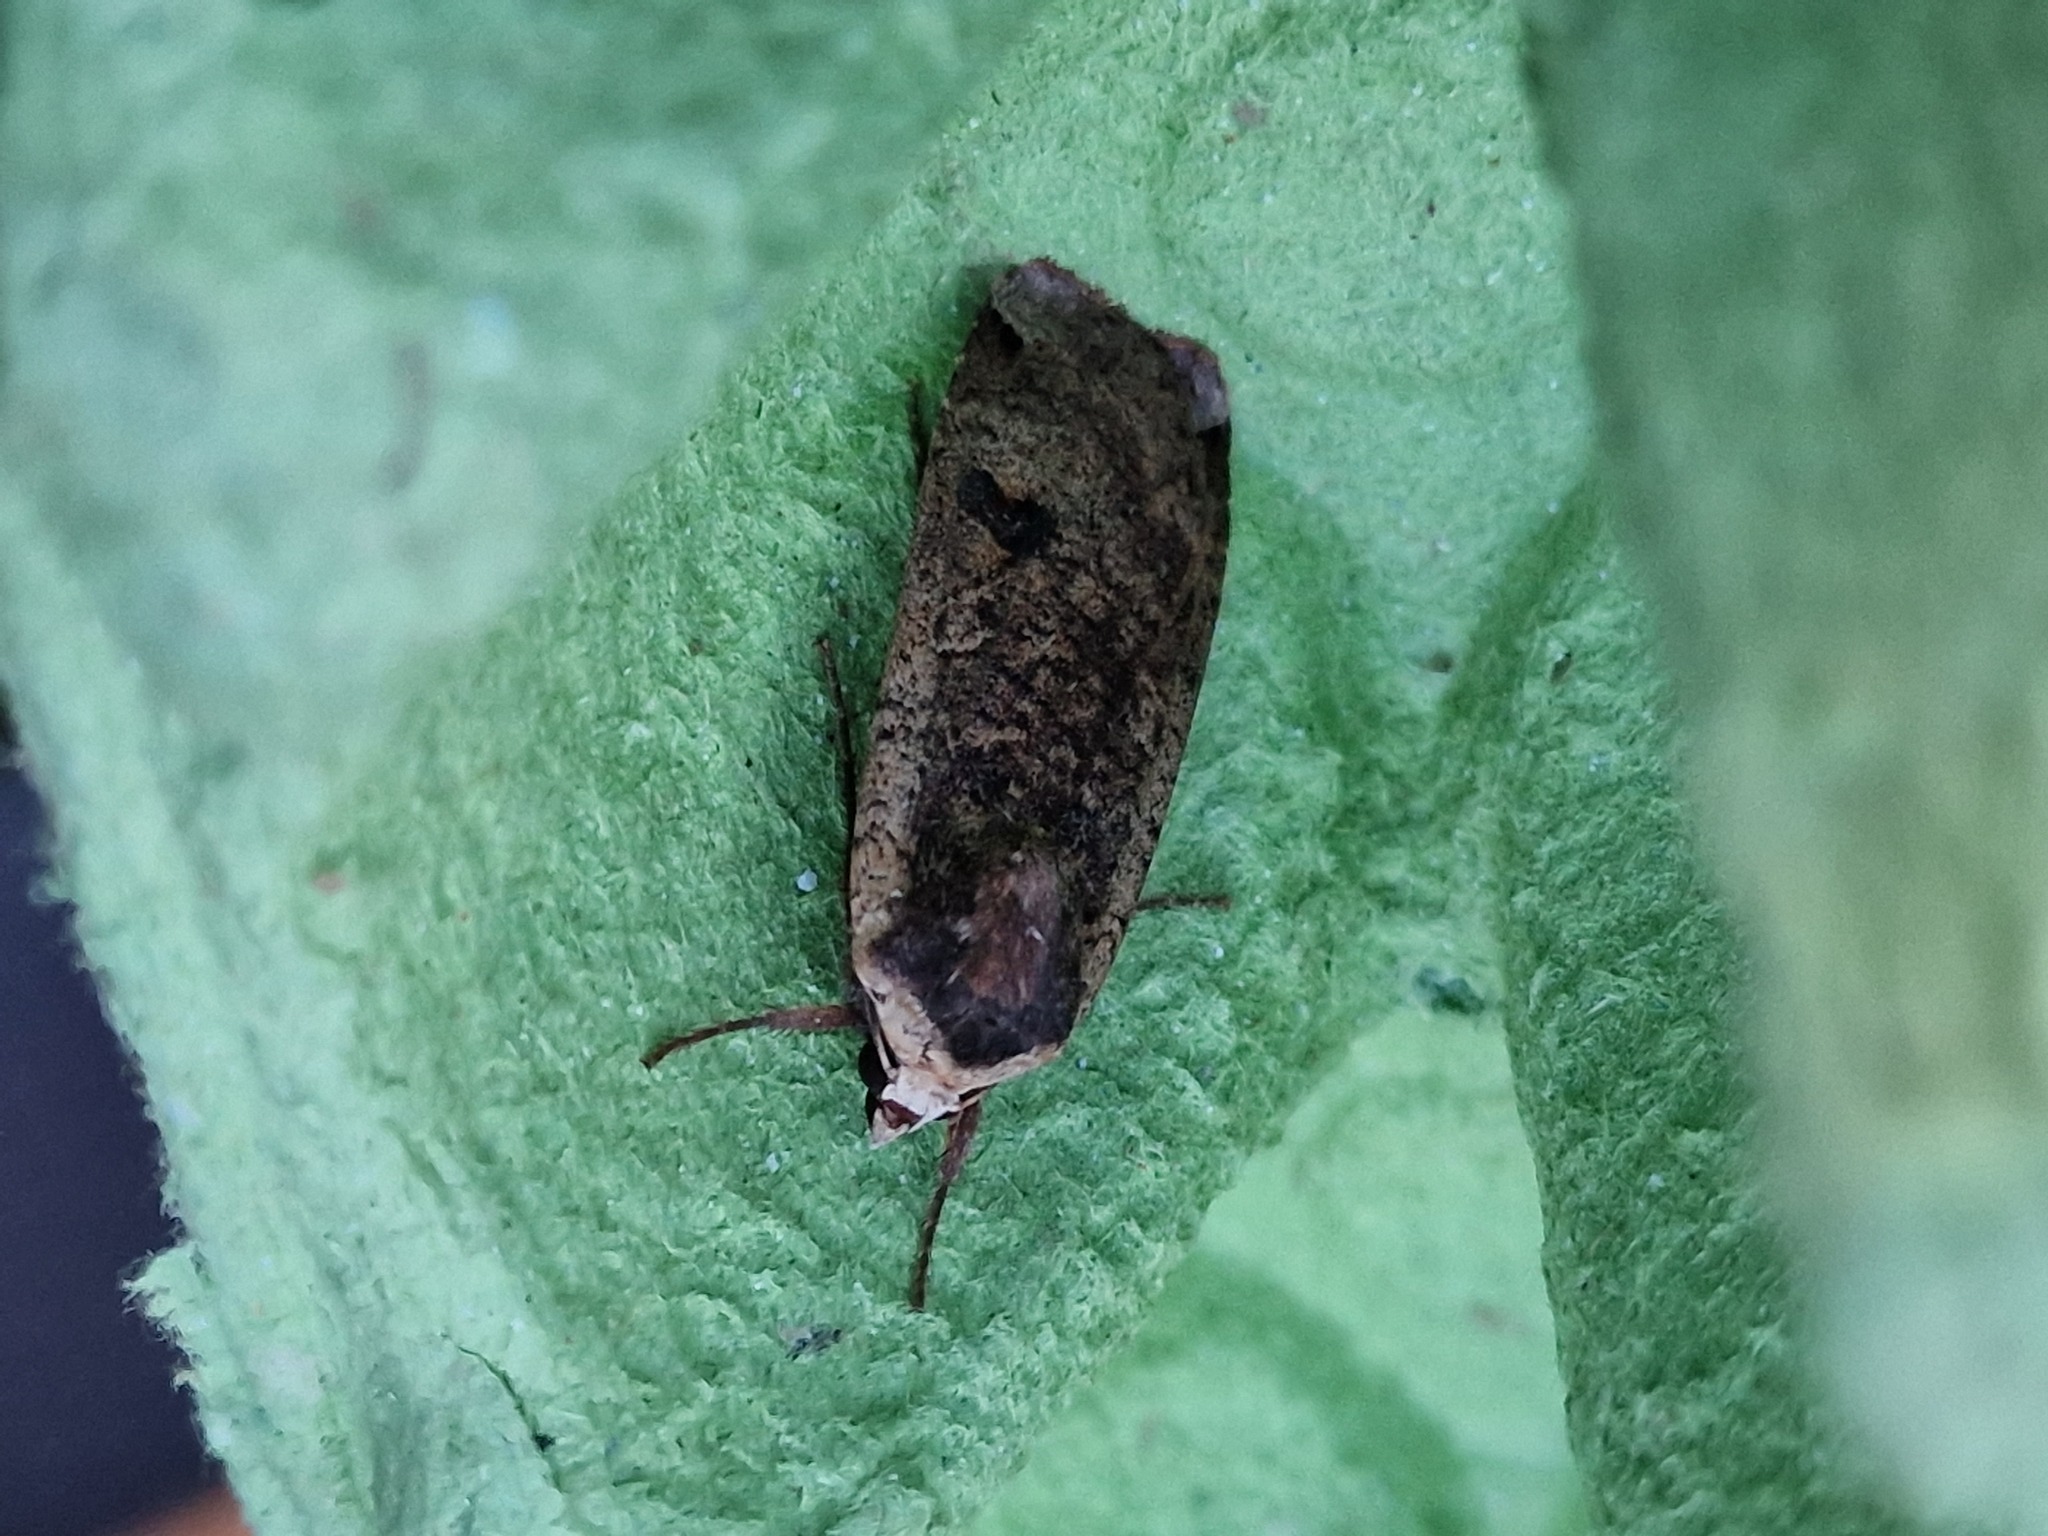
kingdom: Animalia
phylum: Arthropoda
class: Insecta
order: Lepidoptera
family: Noctuidae
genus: Noctua
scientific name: Noctua pronuba
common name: Large yellow underwing
